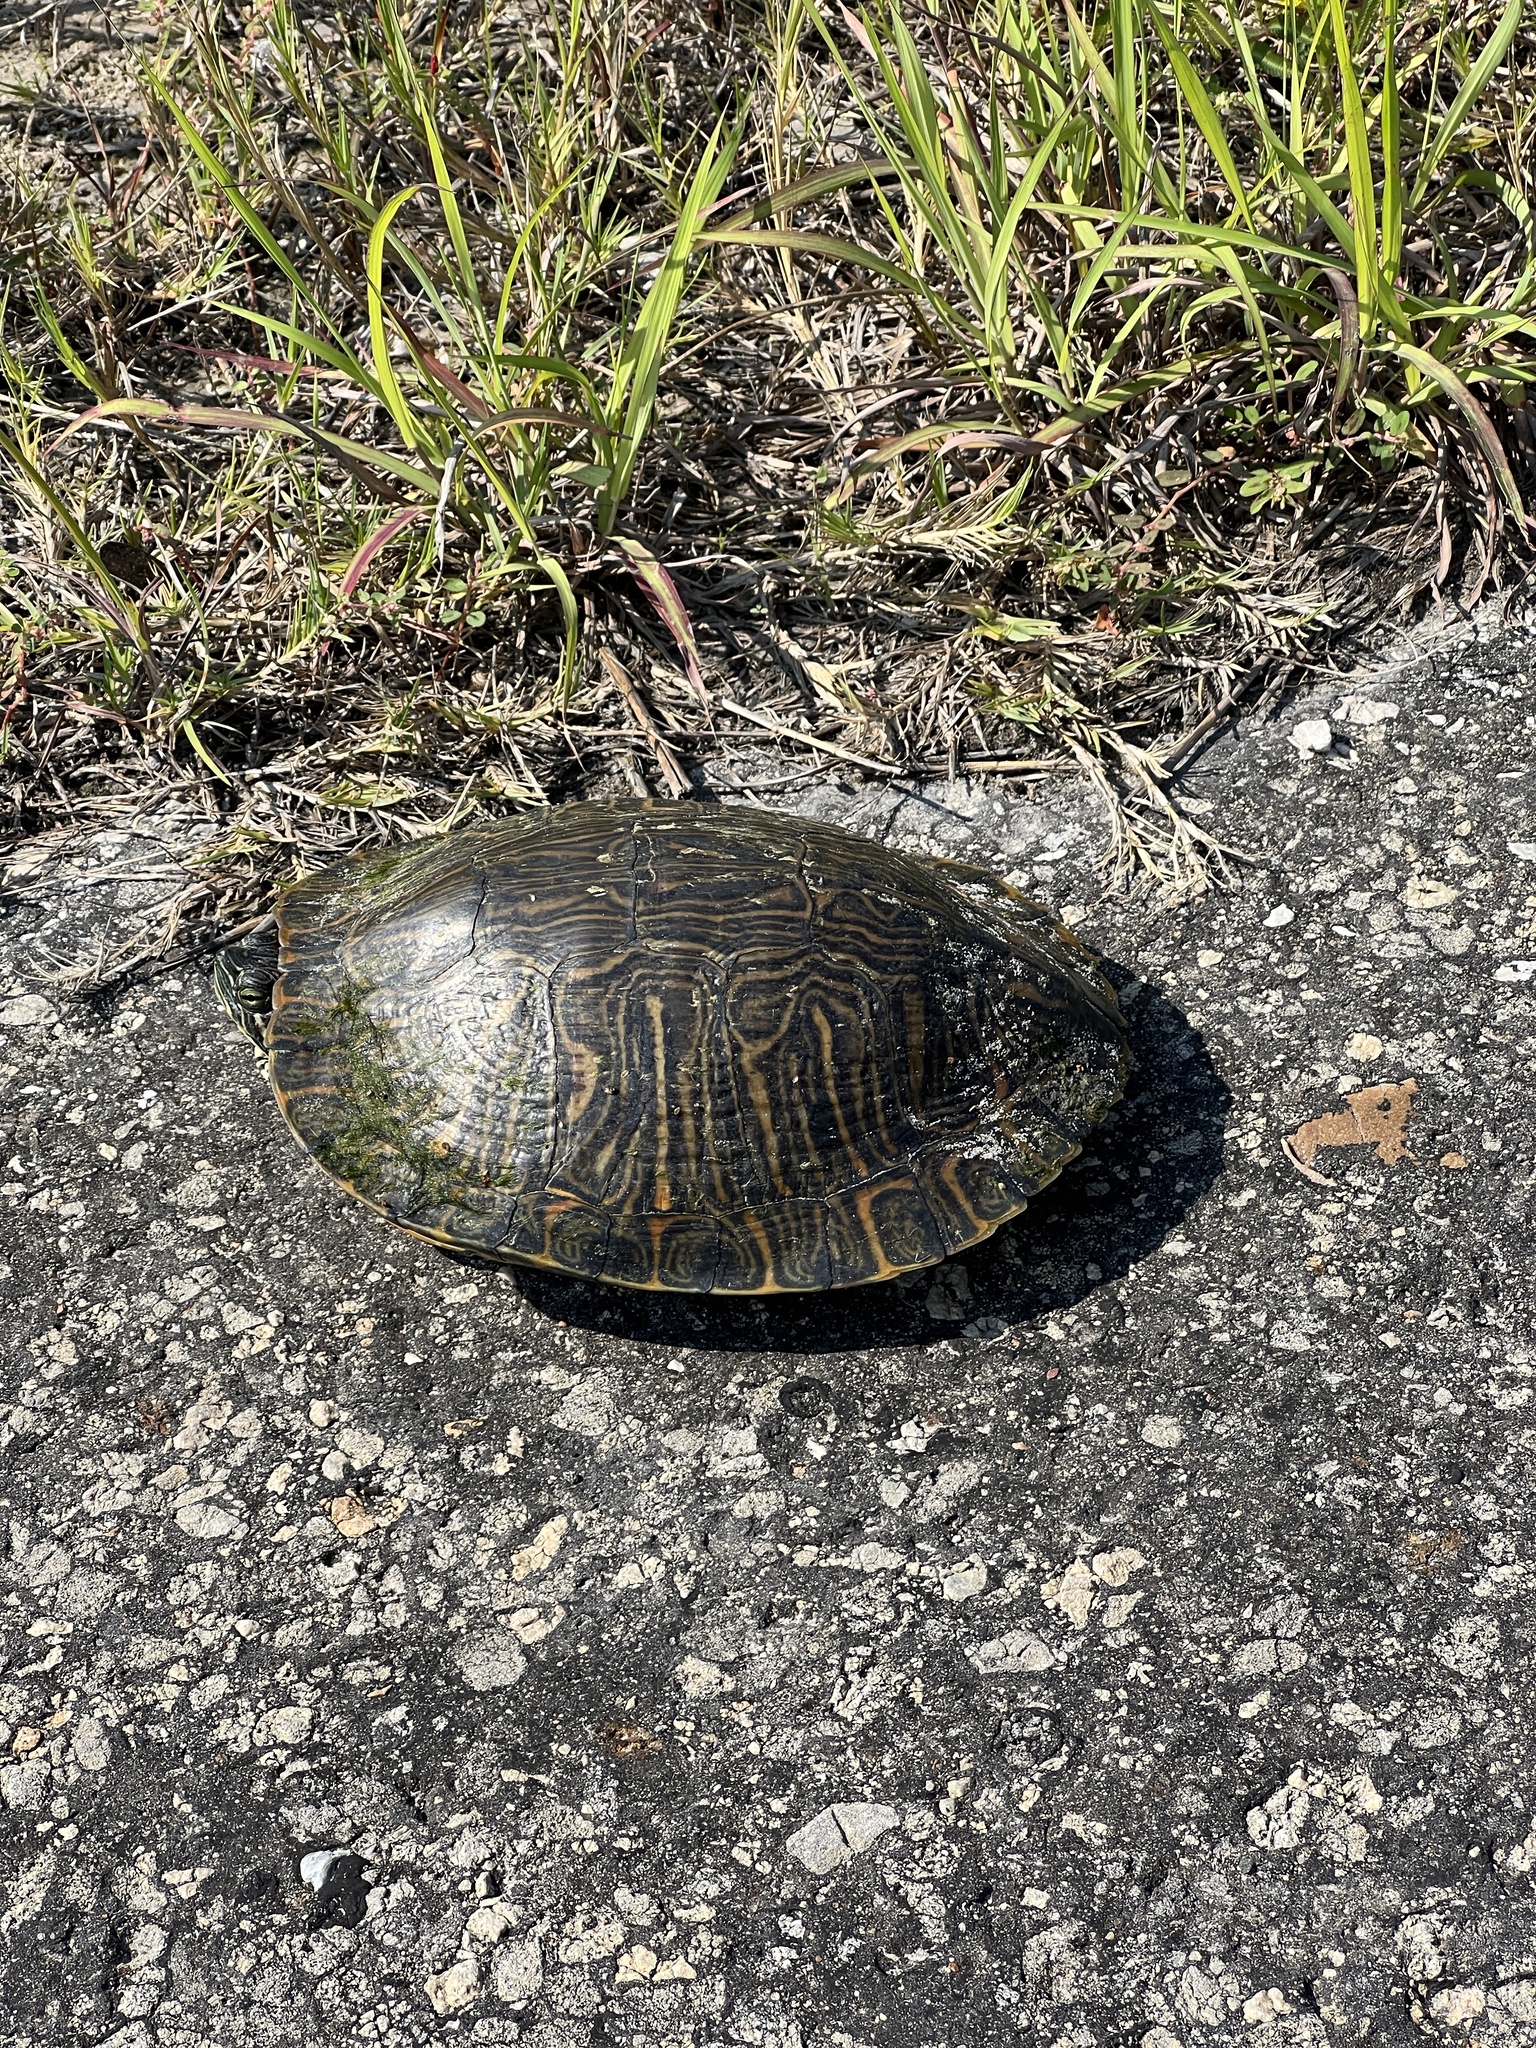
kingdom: Animalia
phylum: Chordata
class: Testudines
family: Emydidae
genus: Trachemys
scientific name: Trachemys scripta
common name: Slider
